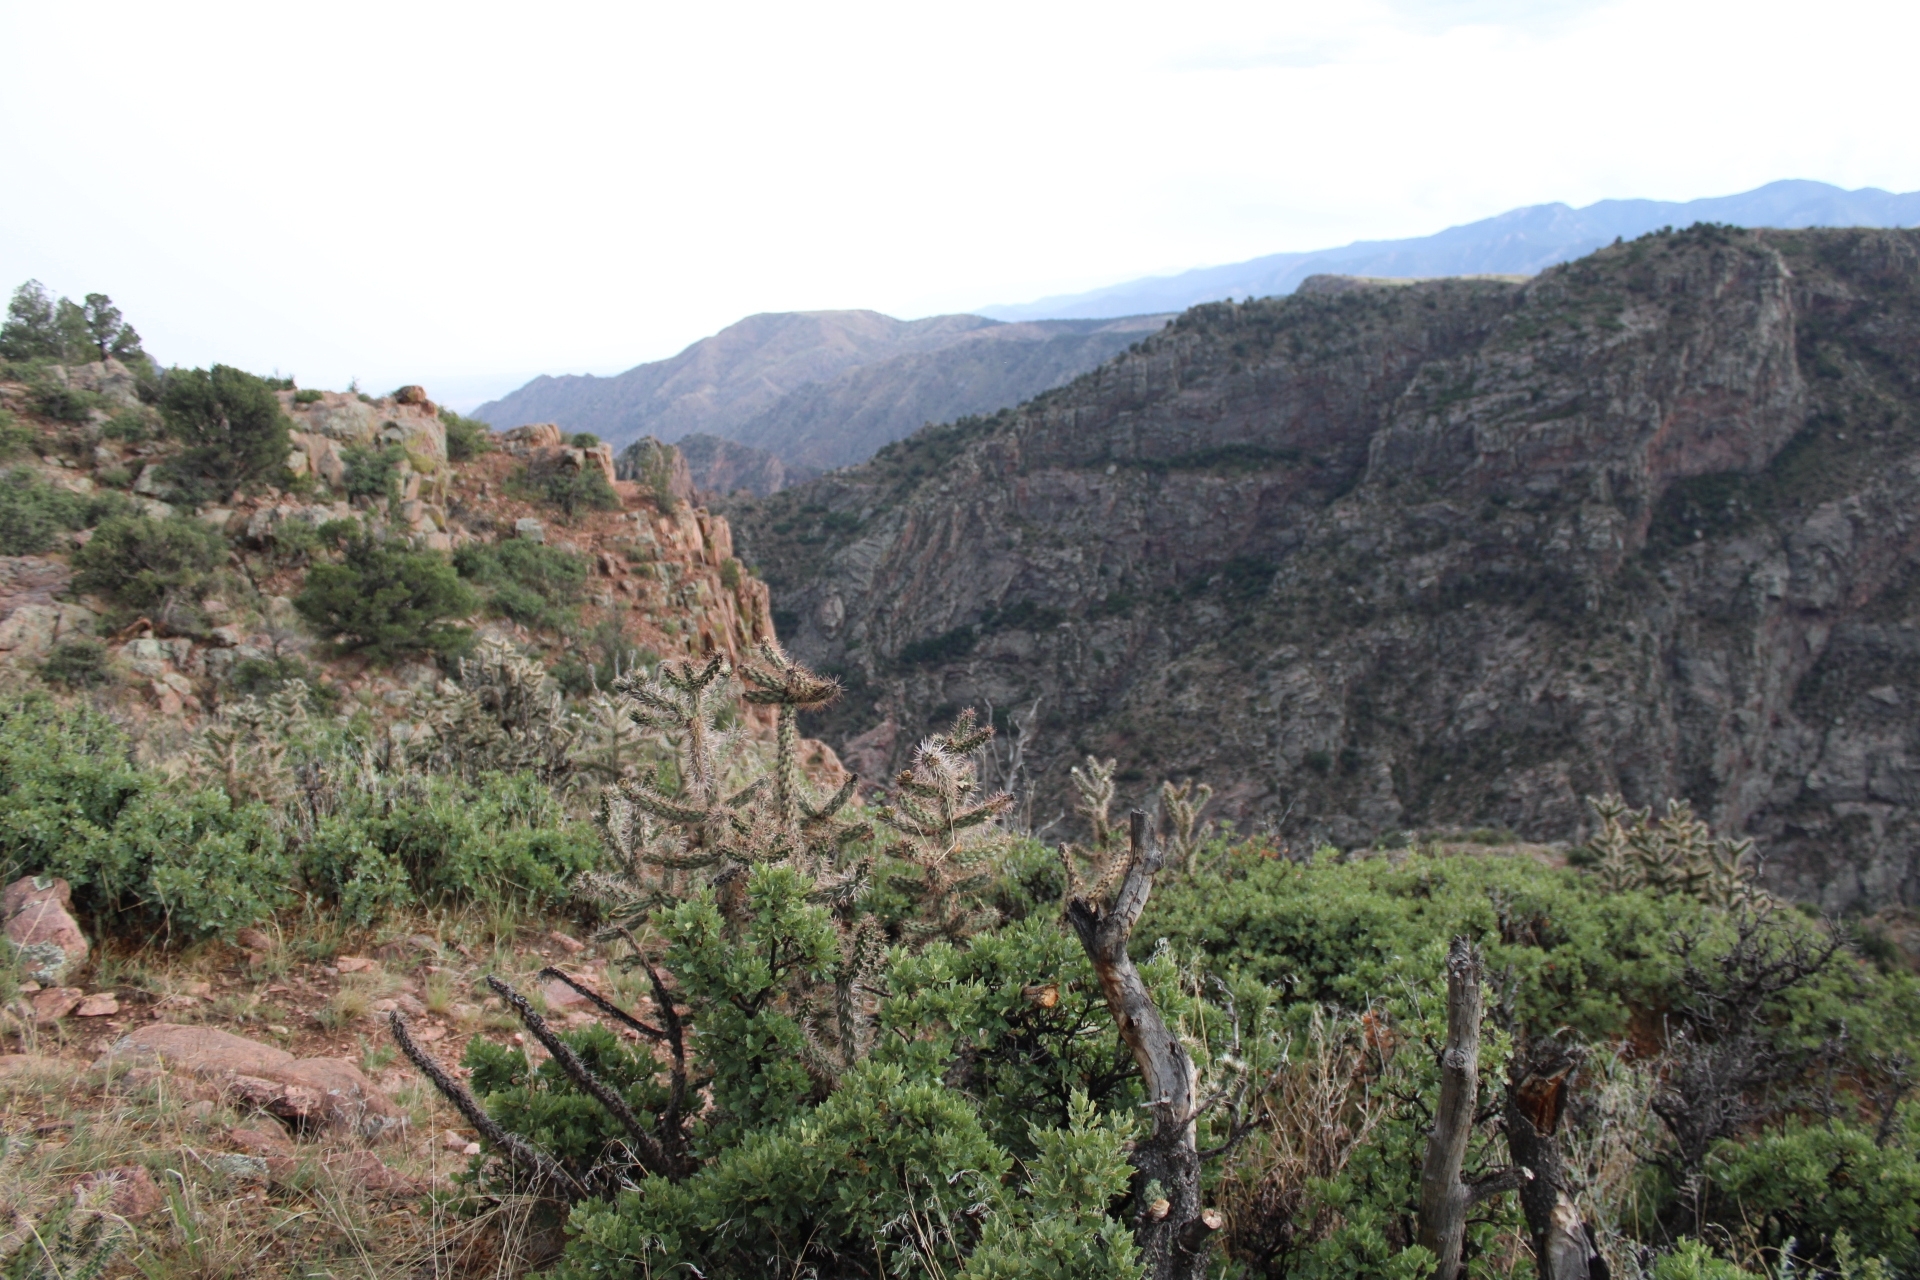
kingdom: Plantae
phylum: Tracheophyta
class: Magnoliopsida
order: Caryophyllales
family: Cactaceae
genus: Cylindropuntia
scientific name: Cylindropuntia imbricata
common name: Candelabrum cactus
